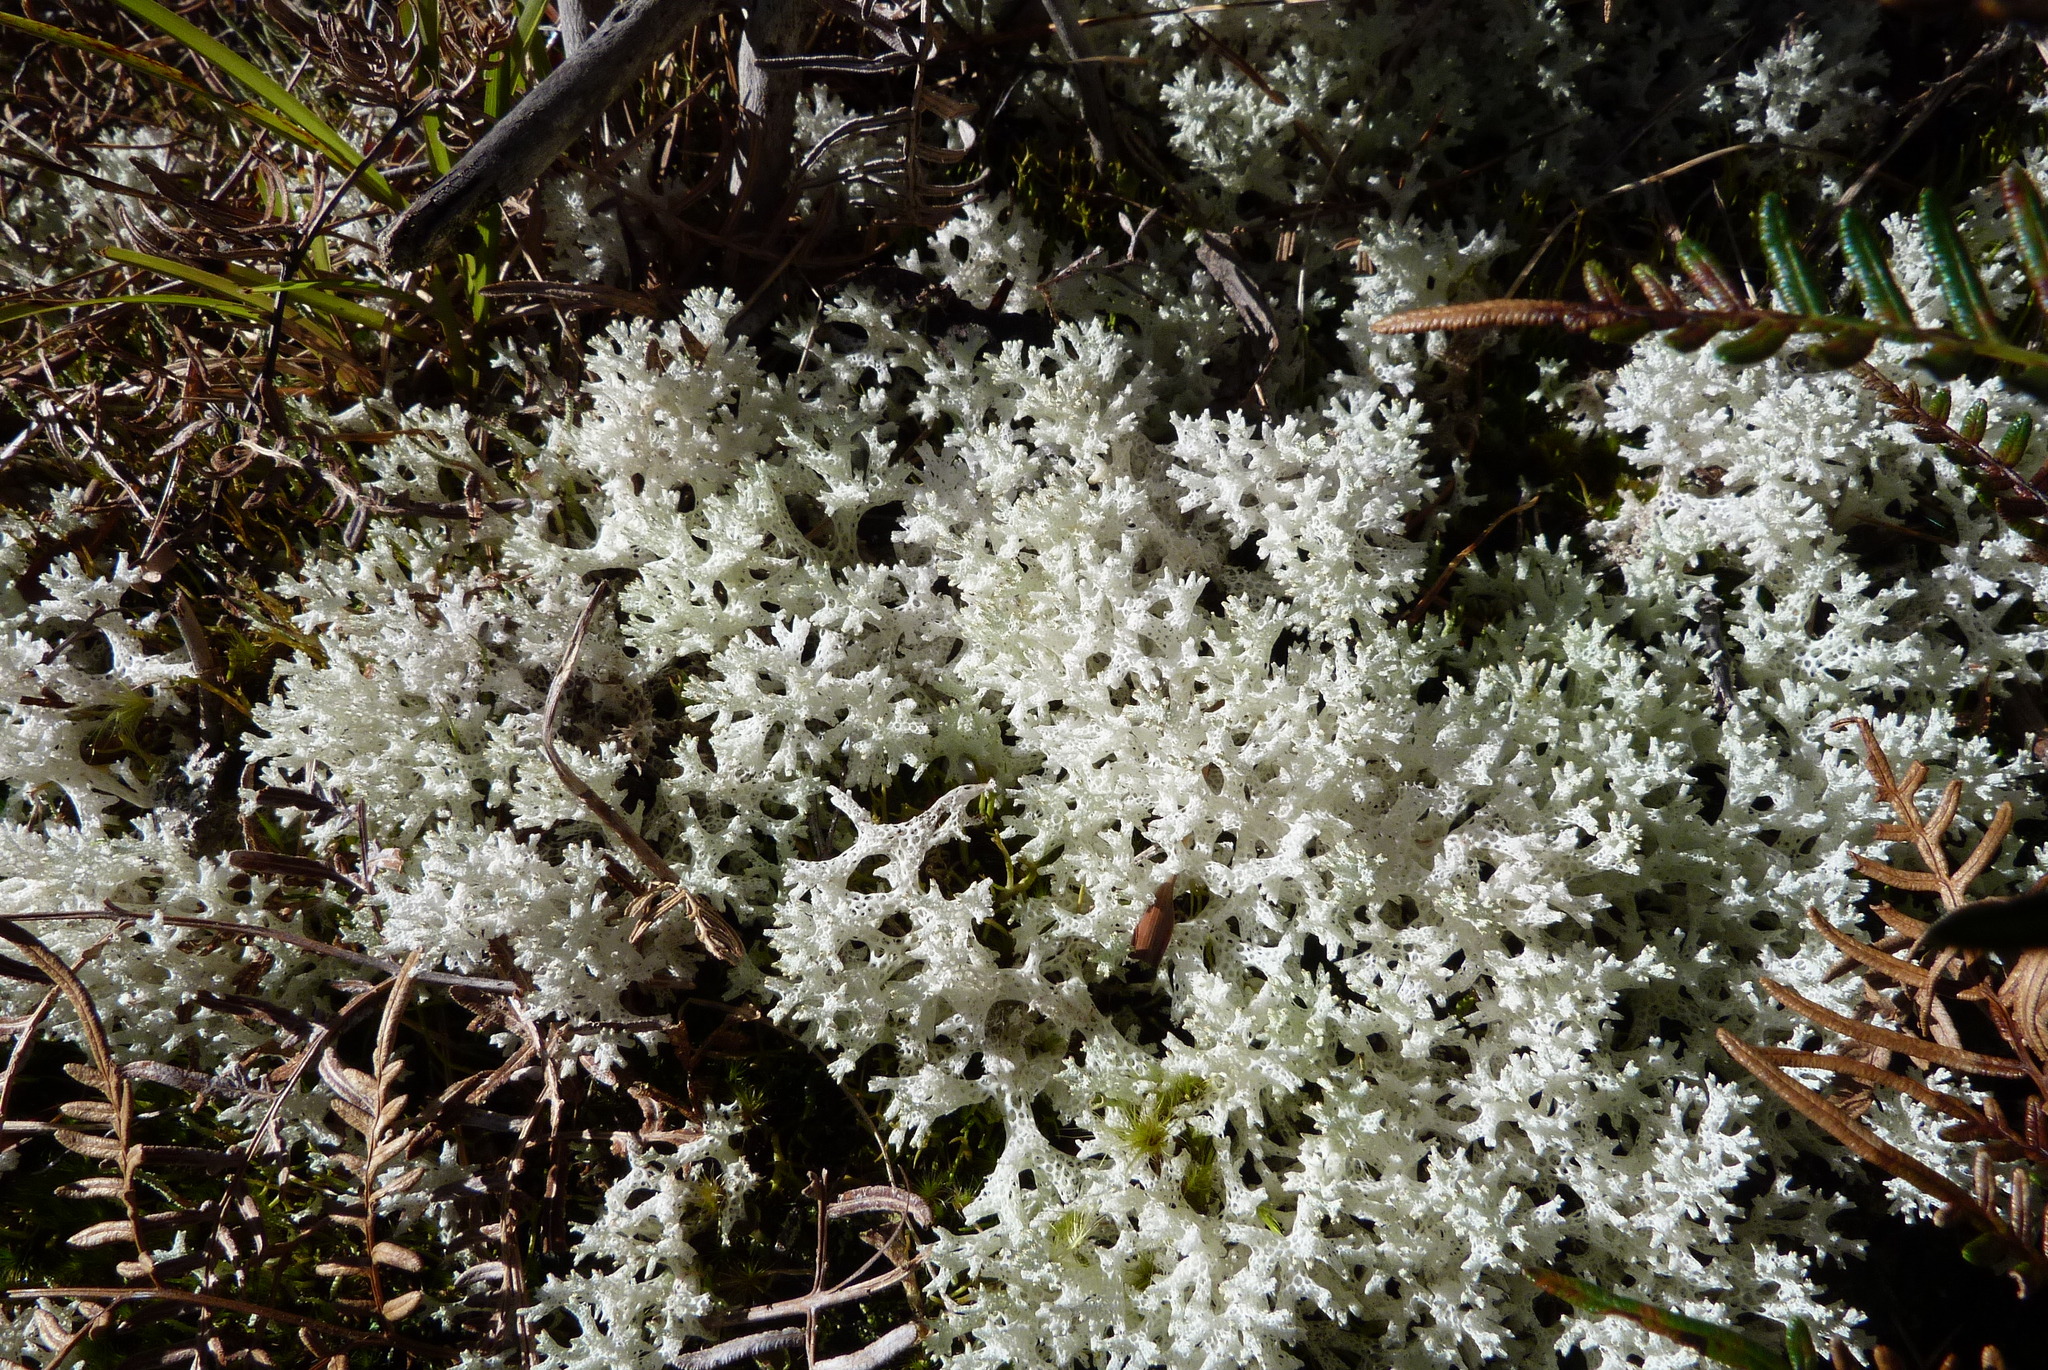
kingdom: Fungi
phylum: Ascomycota
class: Lecanoromycetes
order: Lecanorales
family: Cladoniaceae
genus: Pulchrocladia
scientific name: Pulchrocladia retipora
